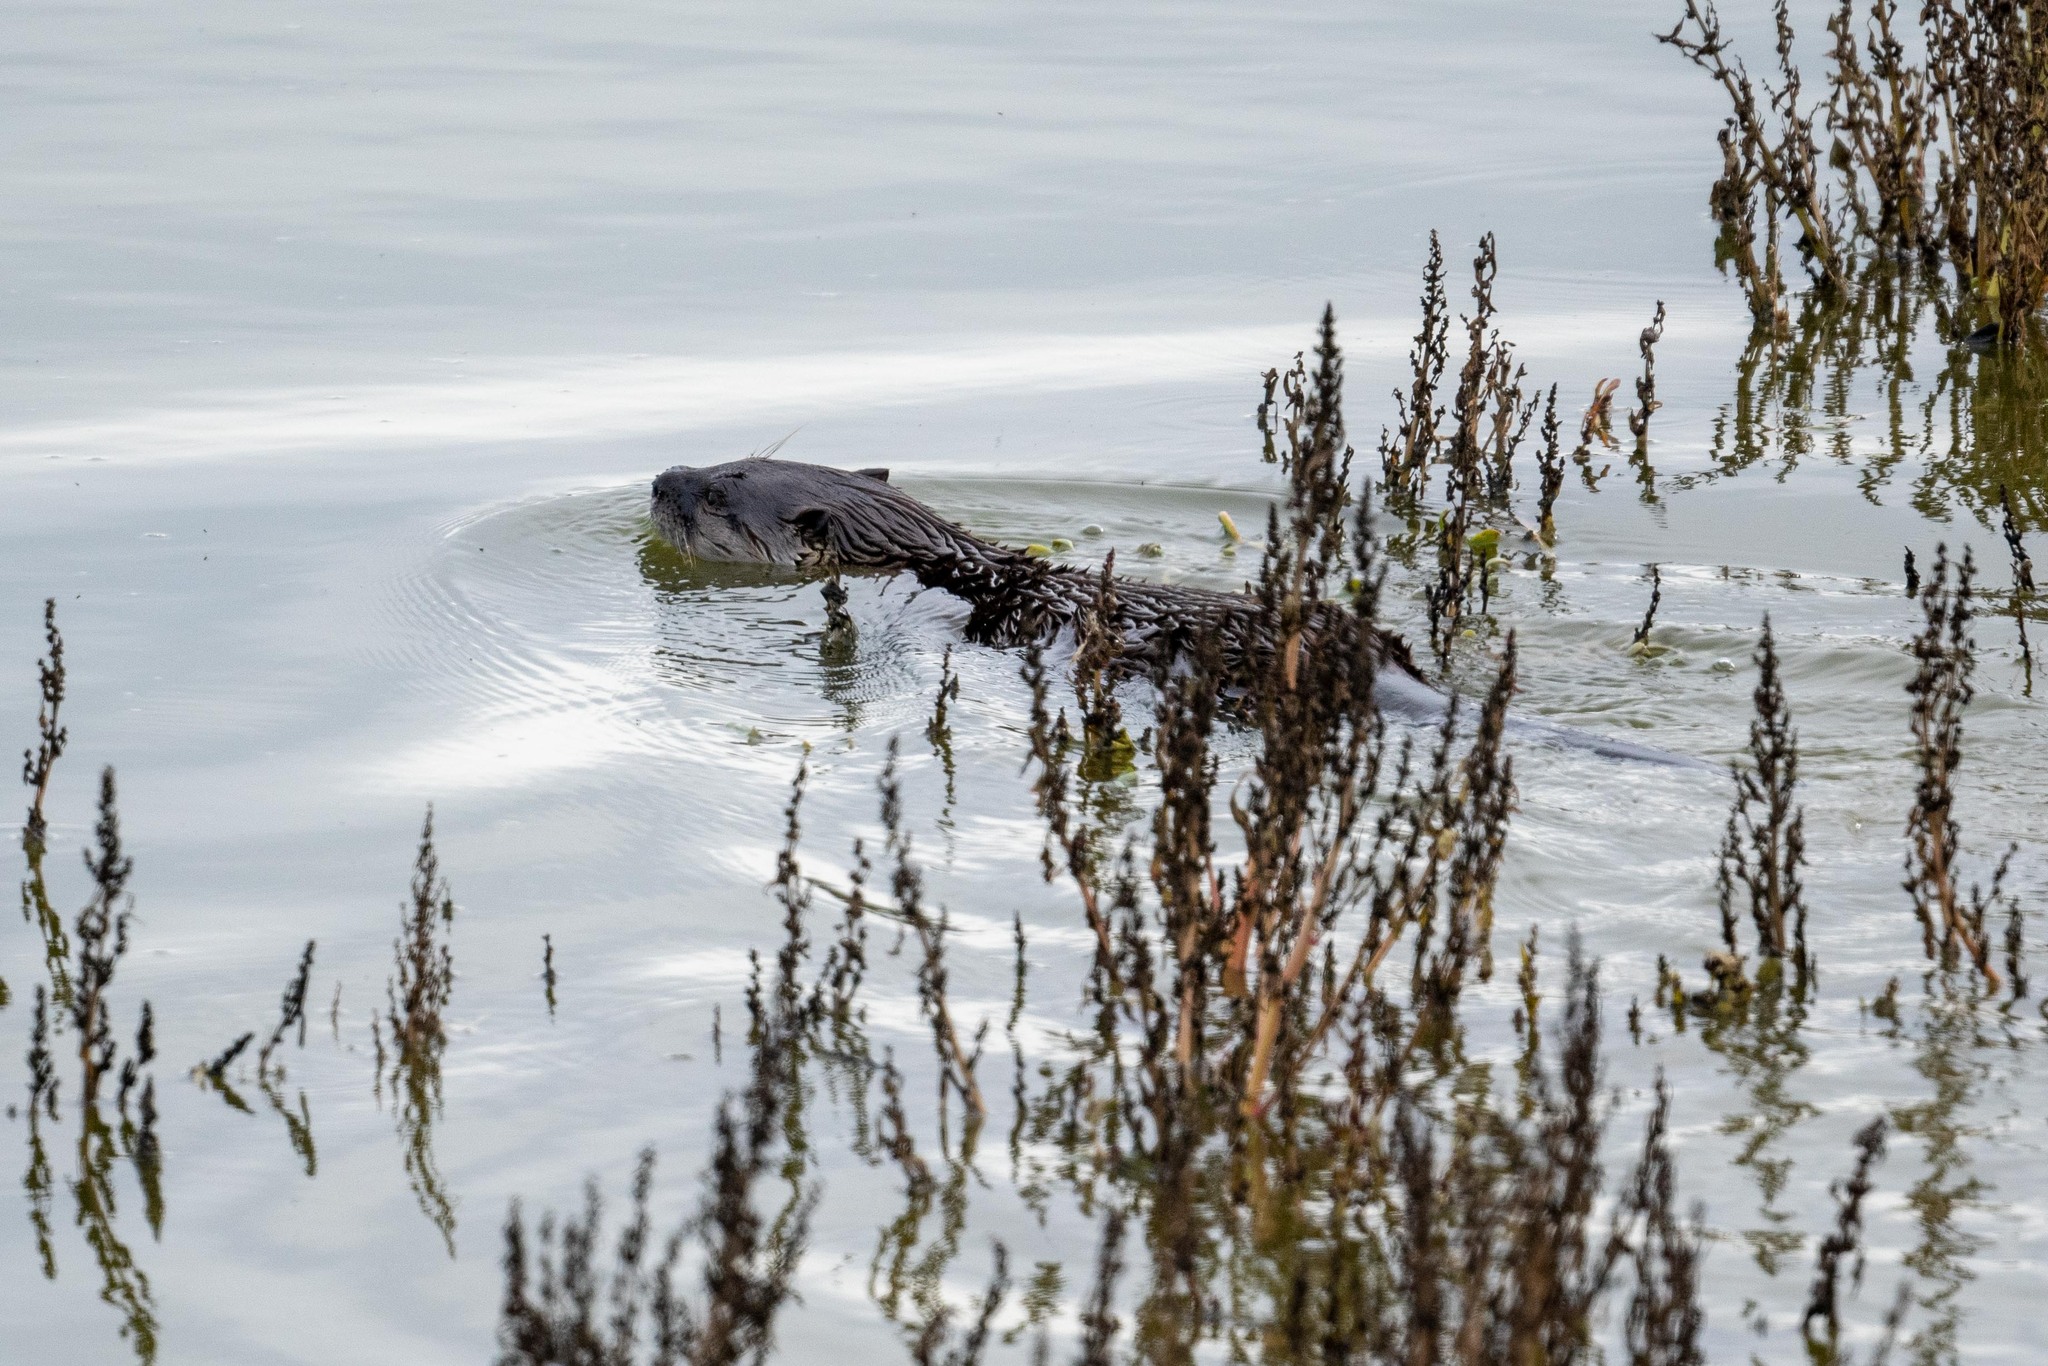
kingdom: Animalia
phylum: Chordata
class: Mammalia
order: Carnivora
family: Mustelidae
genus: Lontra
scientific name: Lontra canadensis
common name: North american river otter
